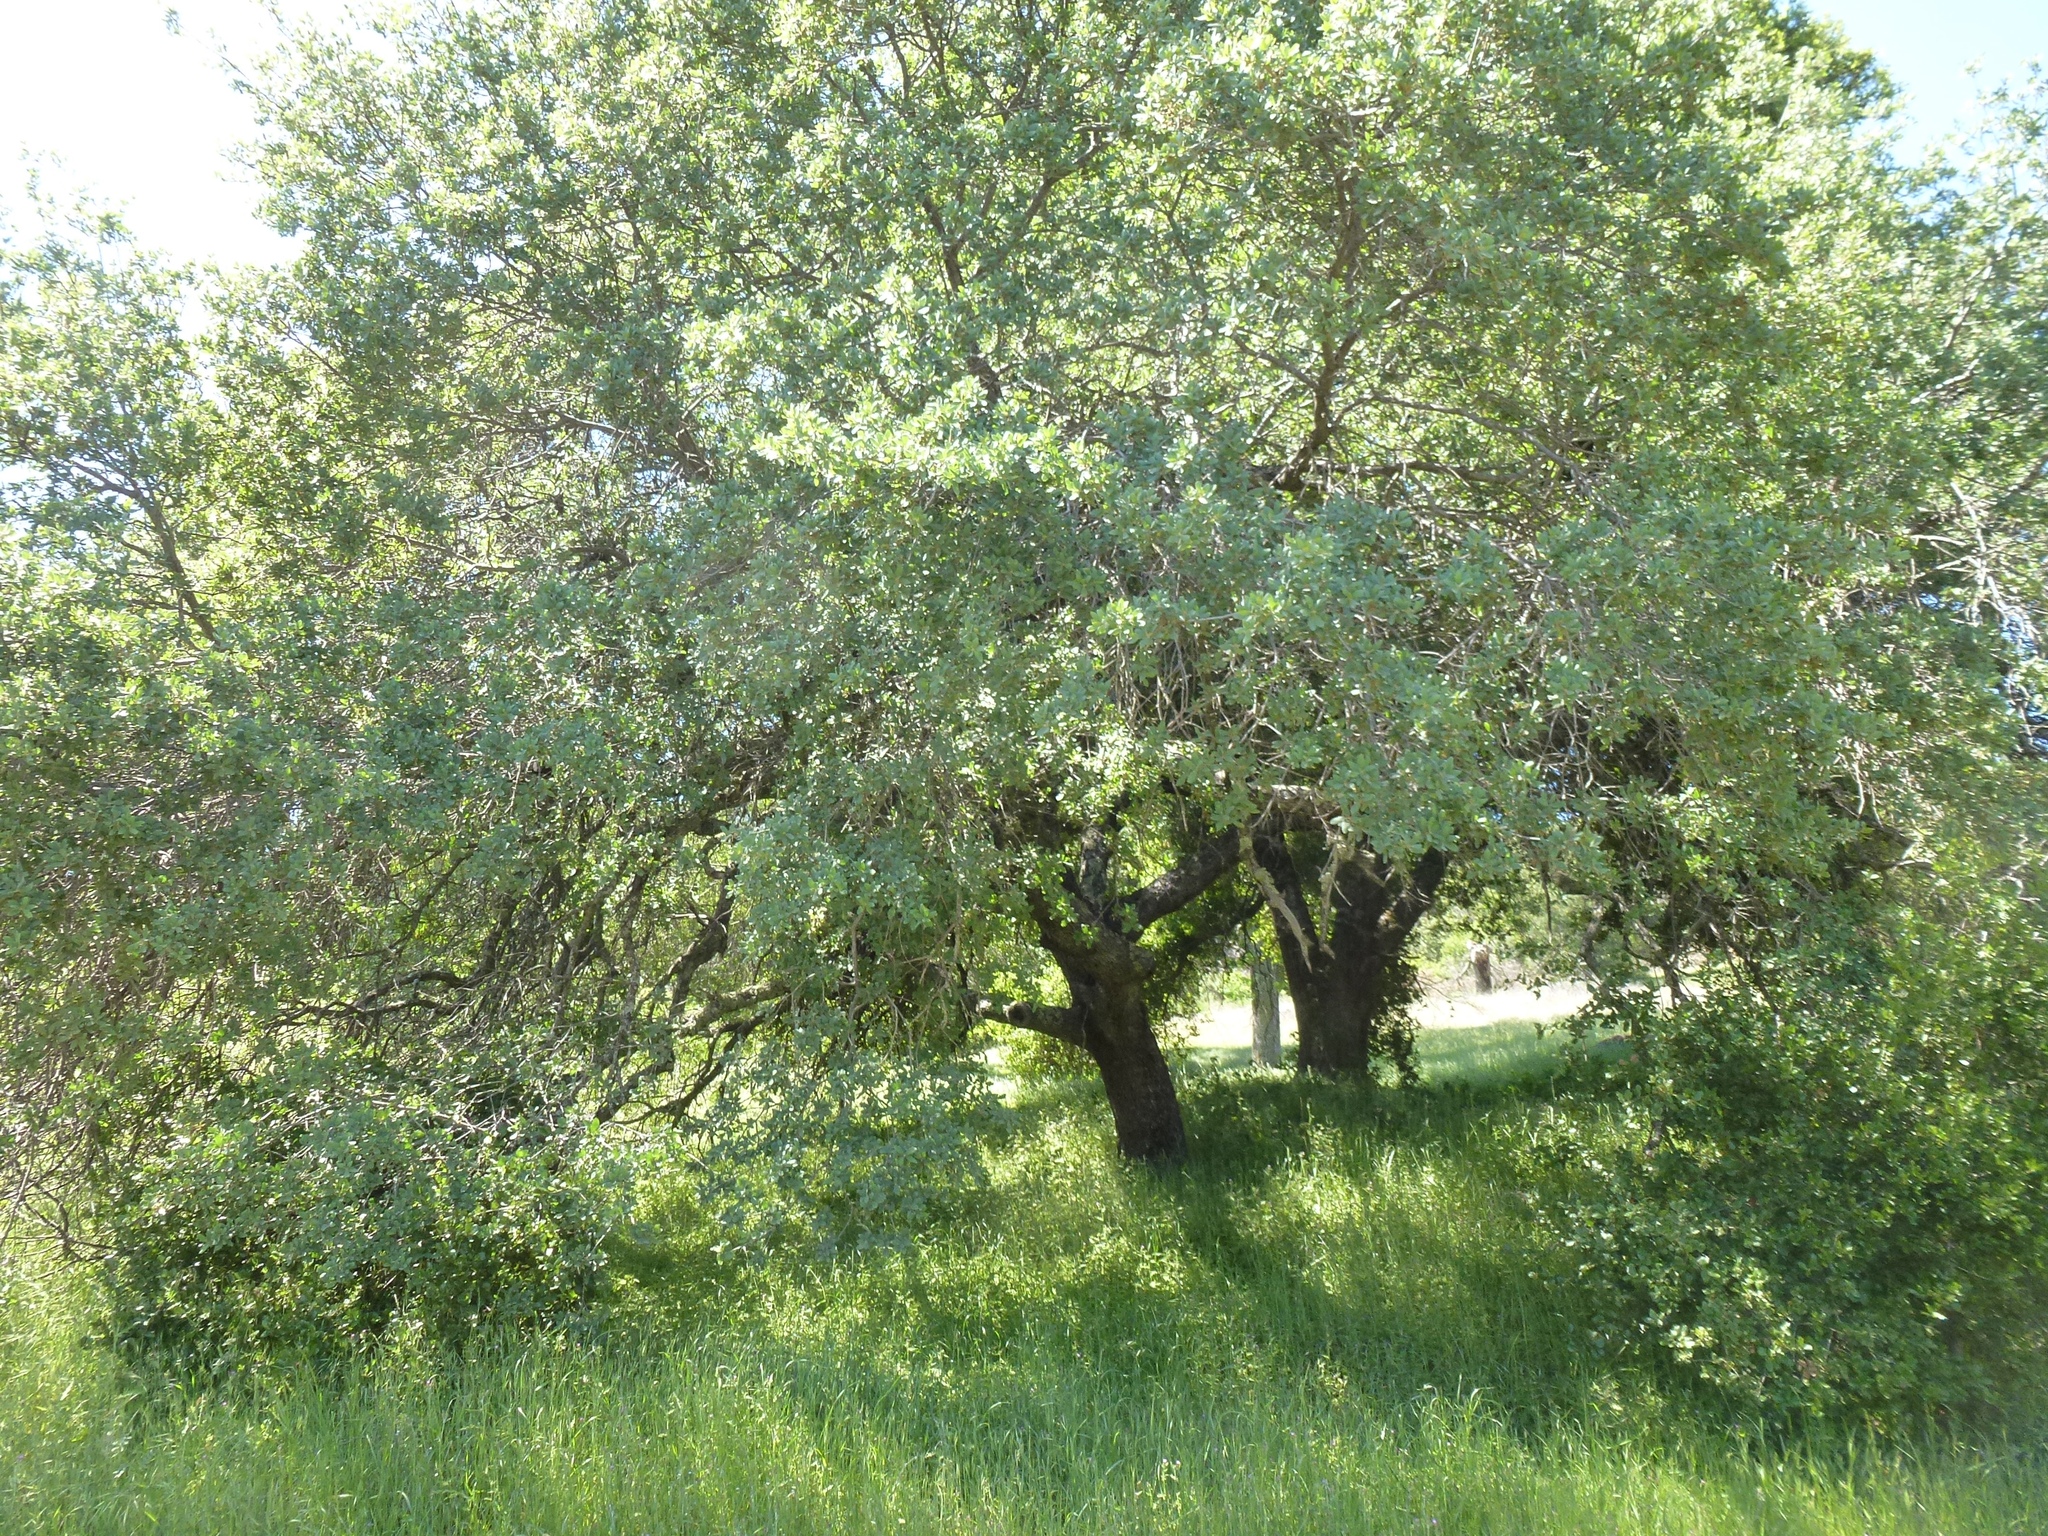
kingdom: Plantae
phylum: Tracheophyta
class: Magnoliopsida
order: Fagales
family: Fagaceae
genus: Quercus
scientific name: Quercus douglasii
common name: Blue oak
